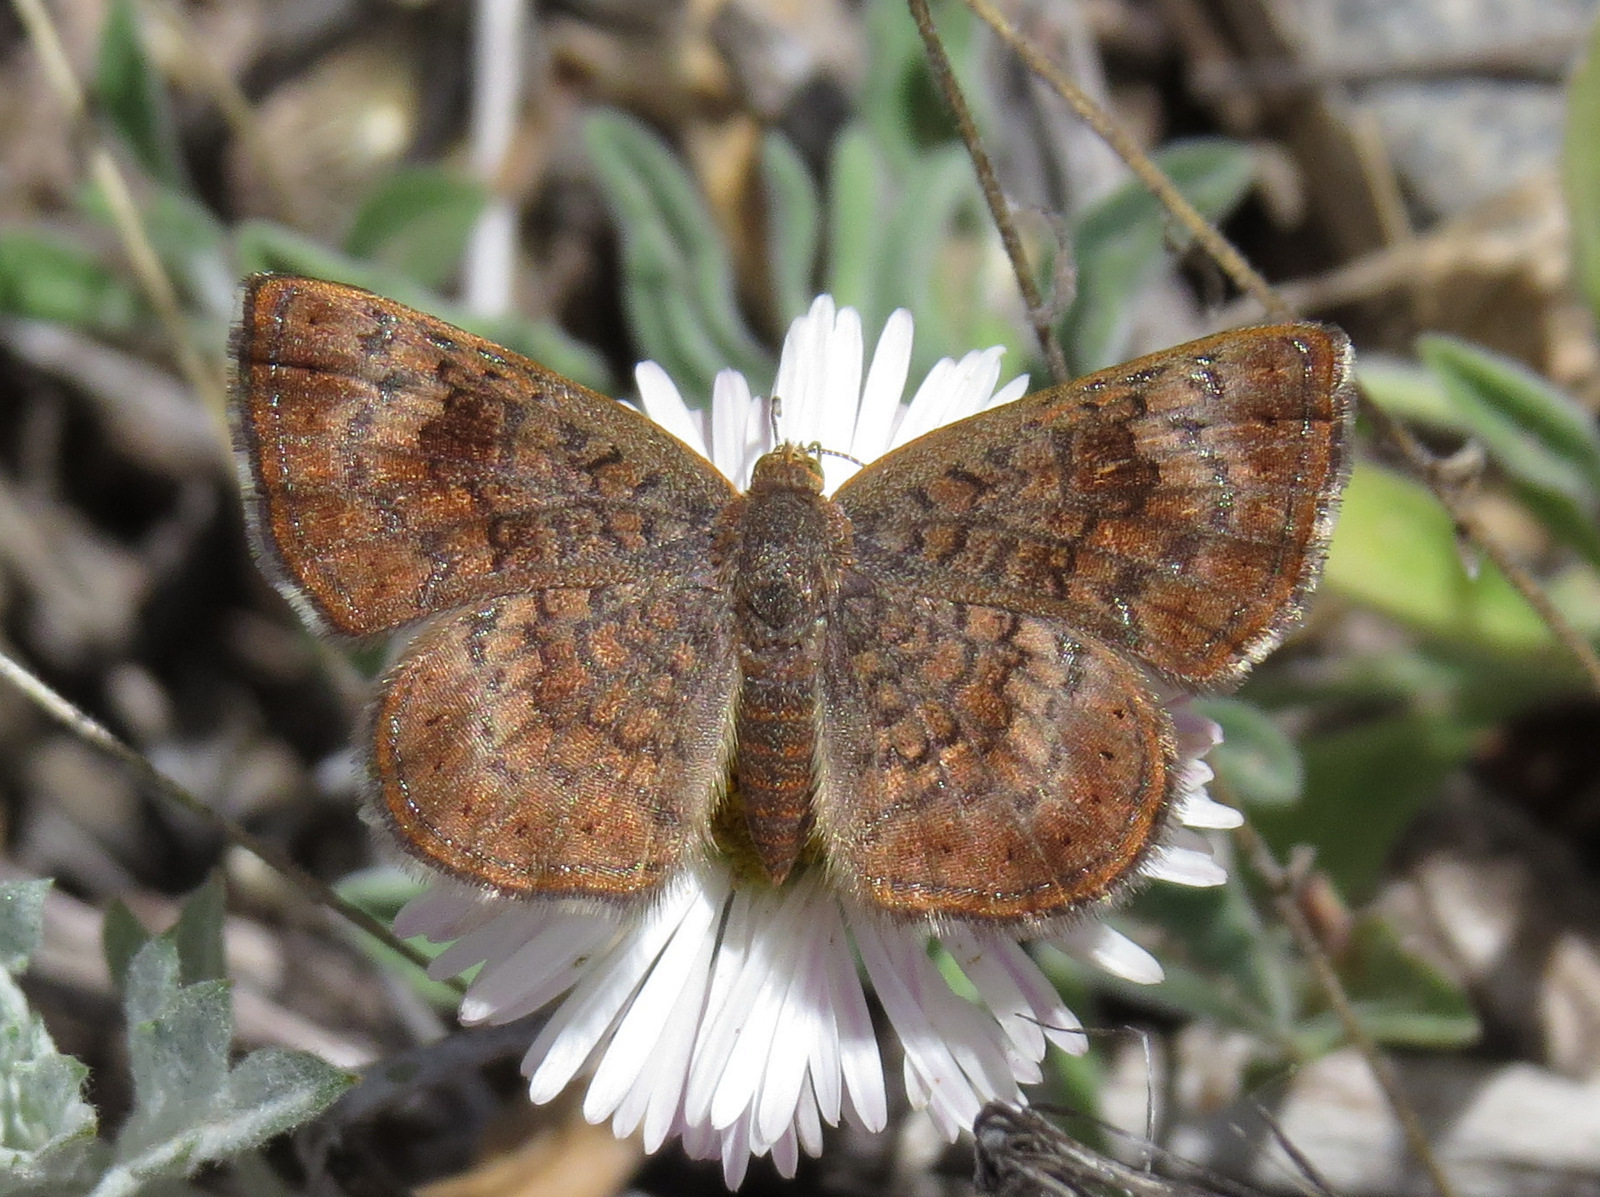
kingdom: Animalia
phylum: Arthropoda
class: Insecta
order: Lepidoptera
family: Lycaenidae
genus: Emesis
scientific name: Emesis rawsoni
